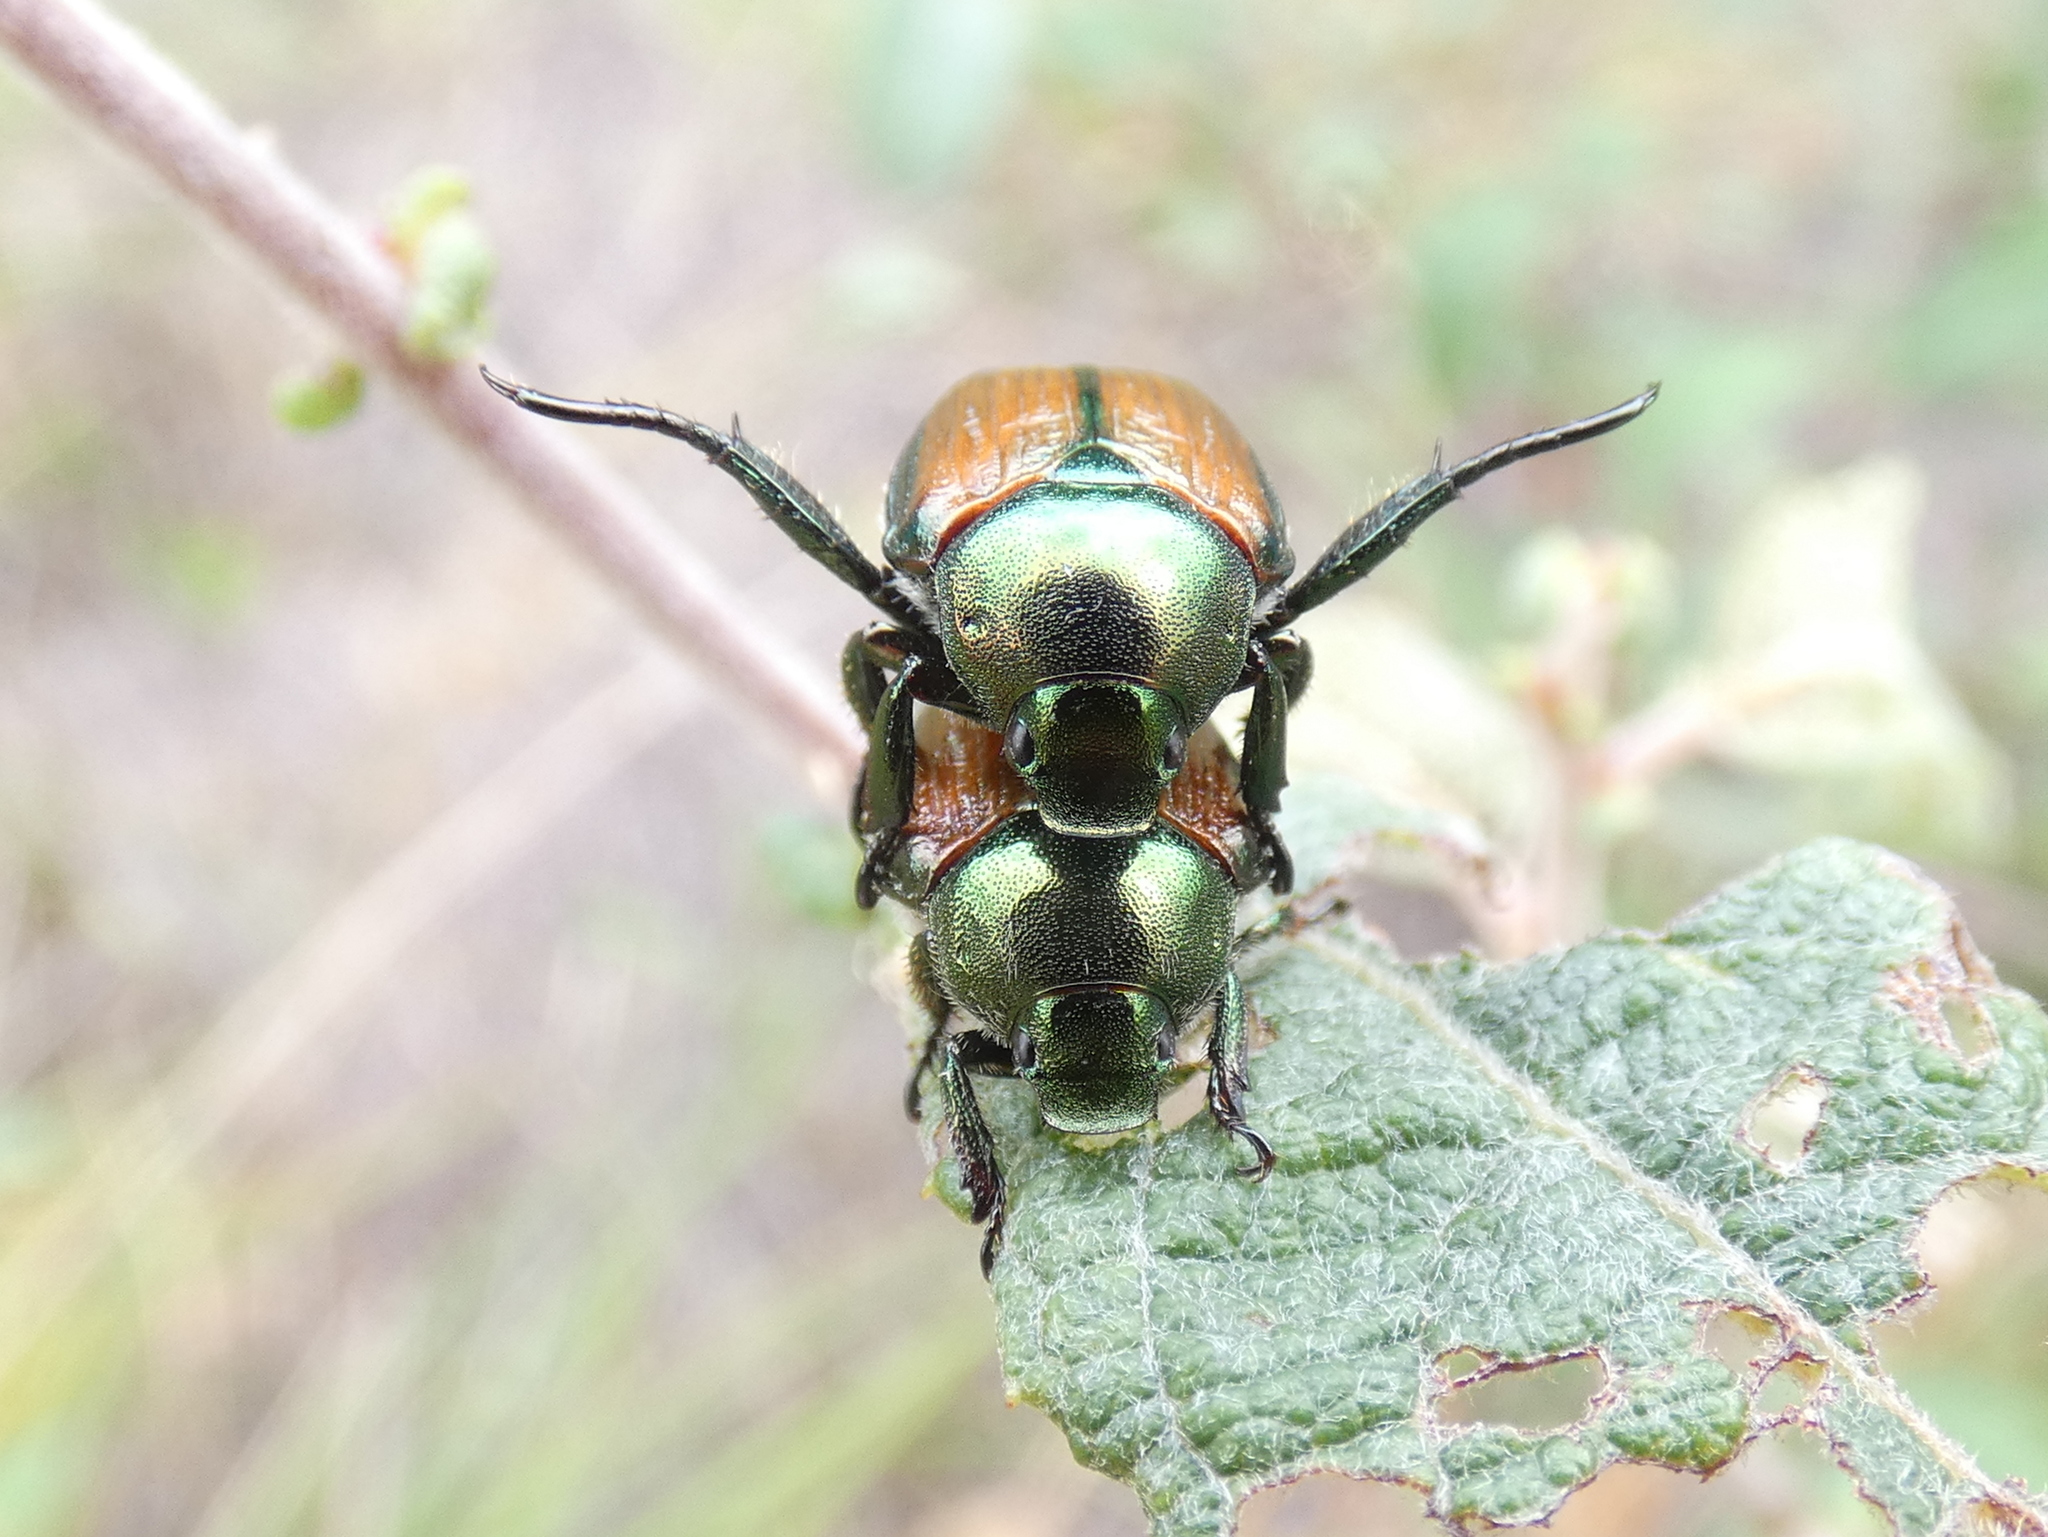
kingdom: Animalia
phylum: Arthropoda
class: Insecta
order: Coleoptera
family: Scarabaeidae
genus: Popillia
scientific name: Popillia japonica
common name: Japanese beetle
